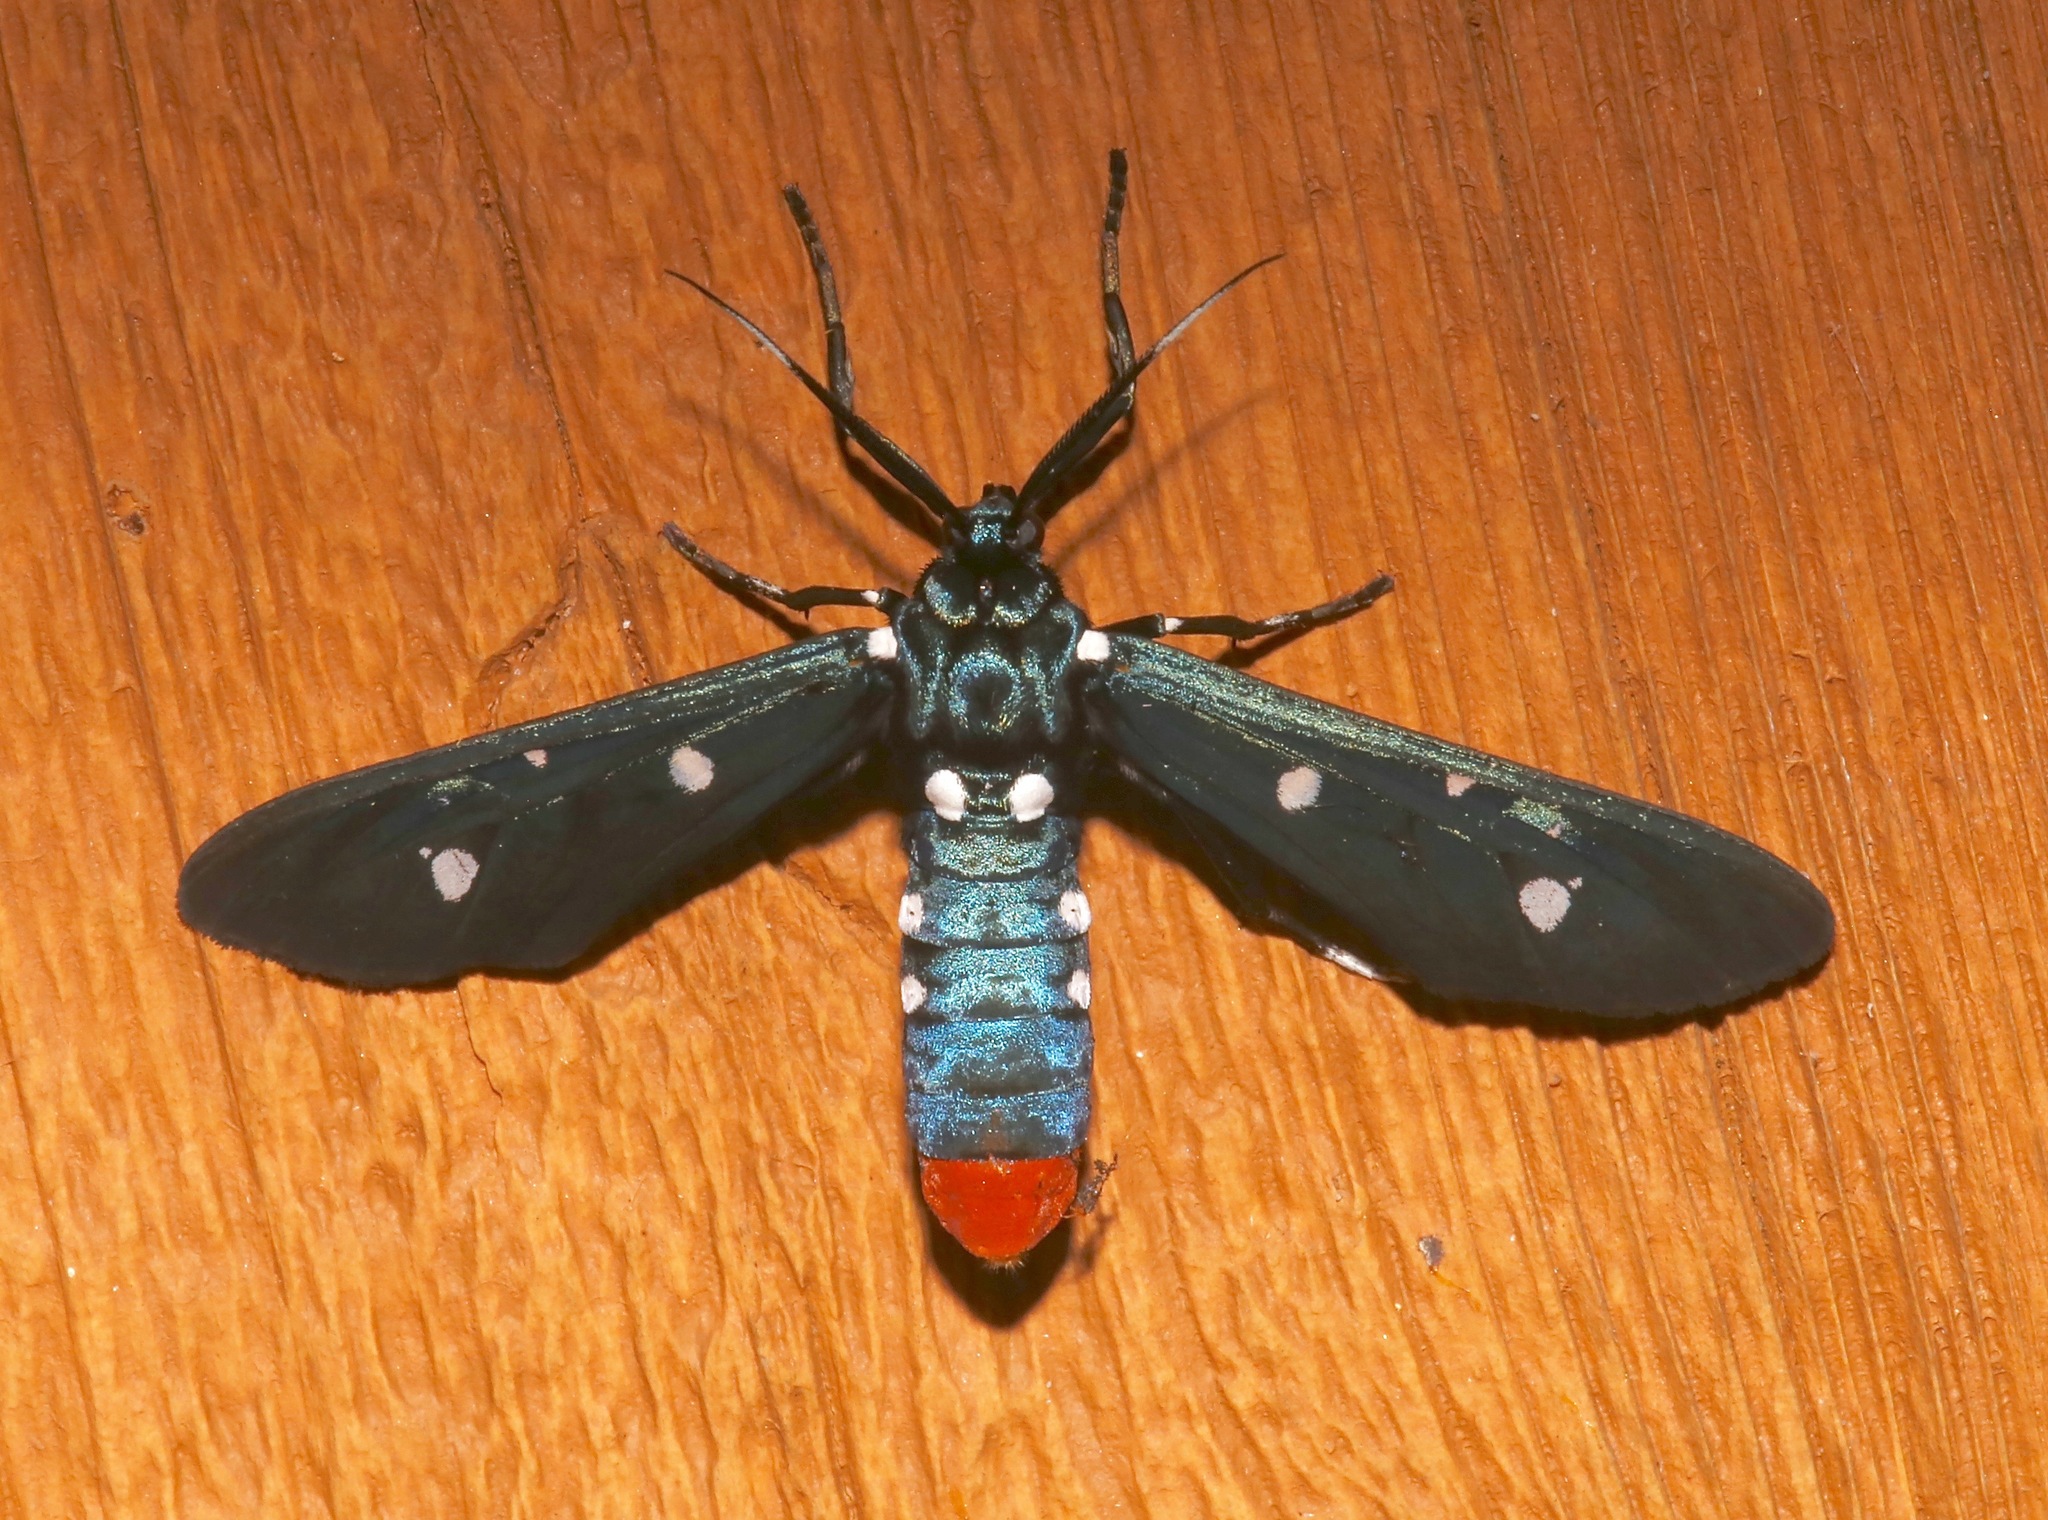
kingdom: Animalia
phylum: Arthropoda
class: Insecta
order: Lepidoptera
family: Erebidae
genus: Syntomeida
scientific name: Syntomeida epilais
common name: Polka-dot wasp moth
